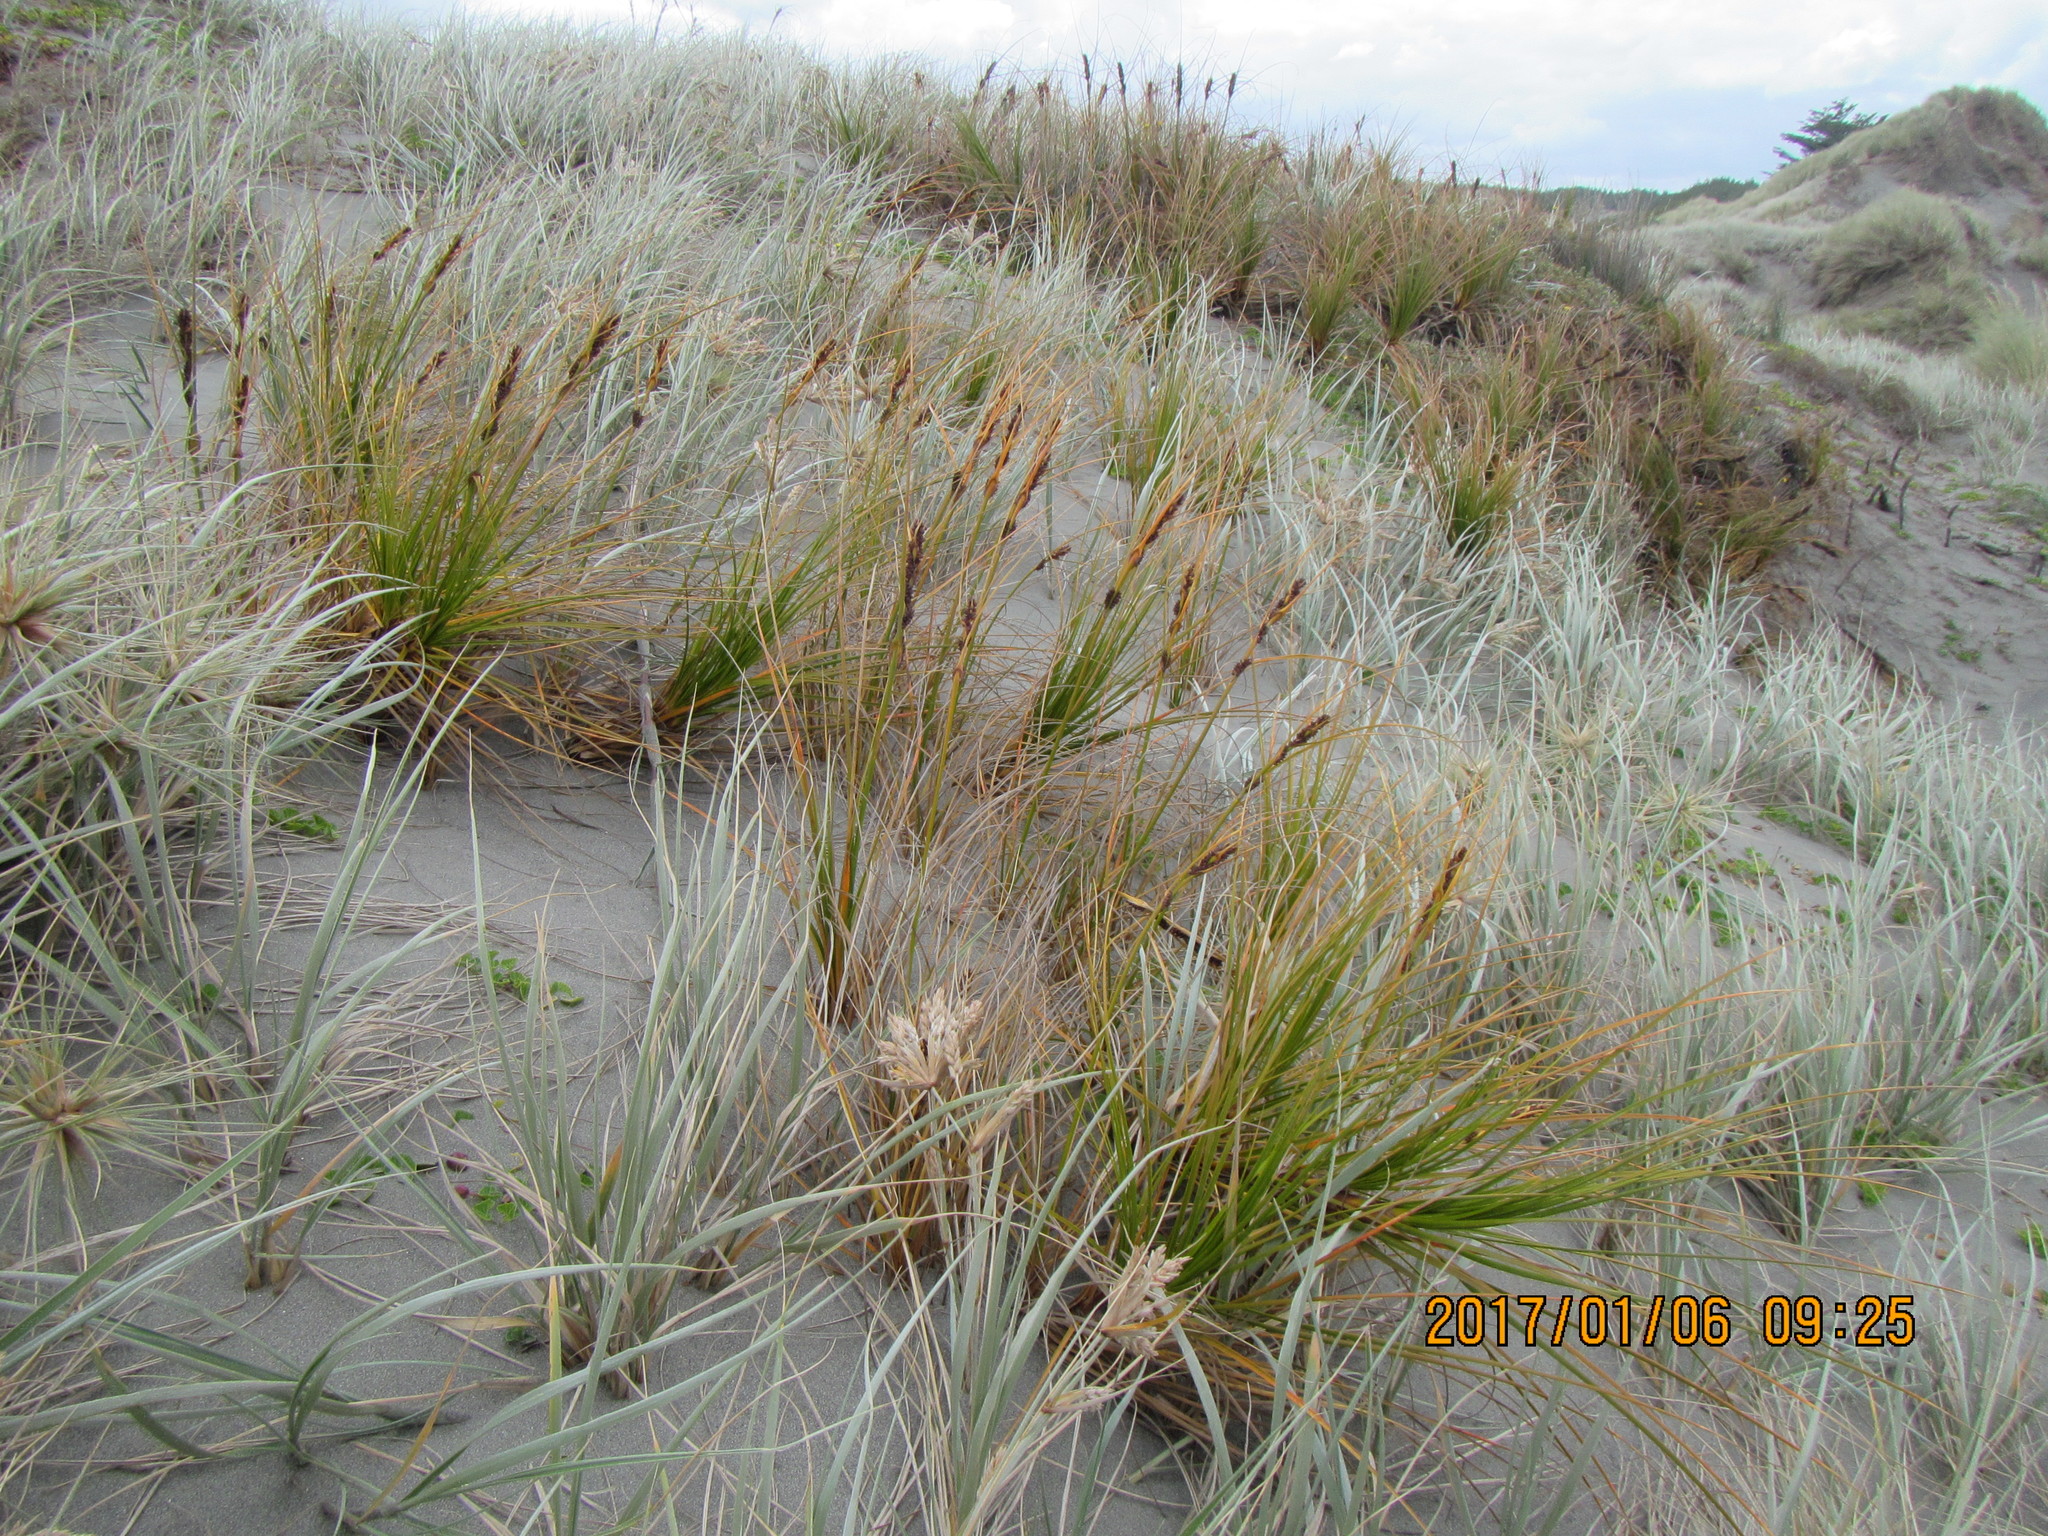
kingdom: Plantae
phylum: Tracheophyta
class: Liliopsida
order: Poales
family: Cyperaceae
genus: Ficinia
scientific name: Ficinia spiralis
